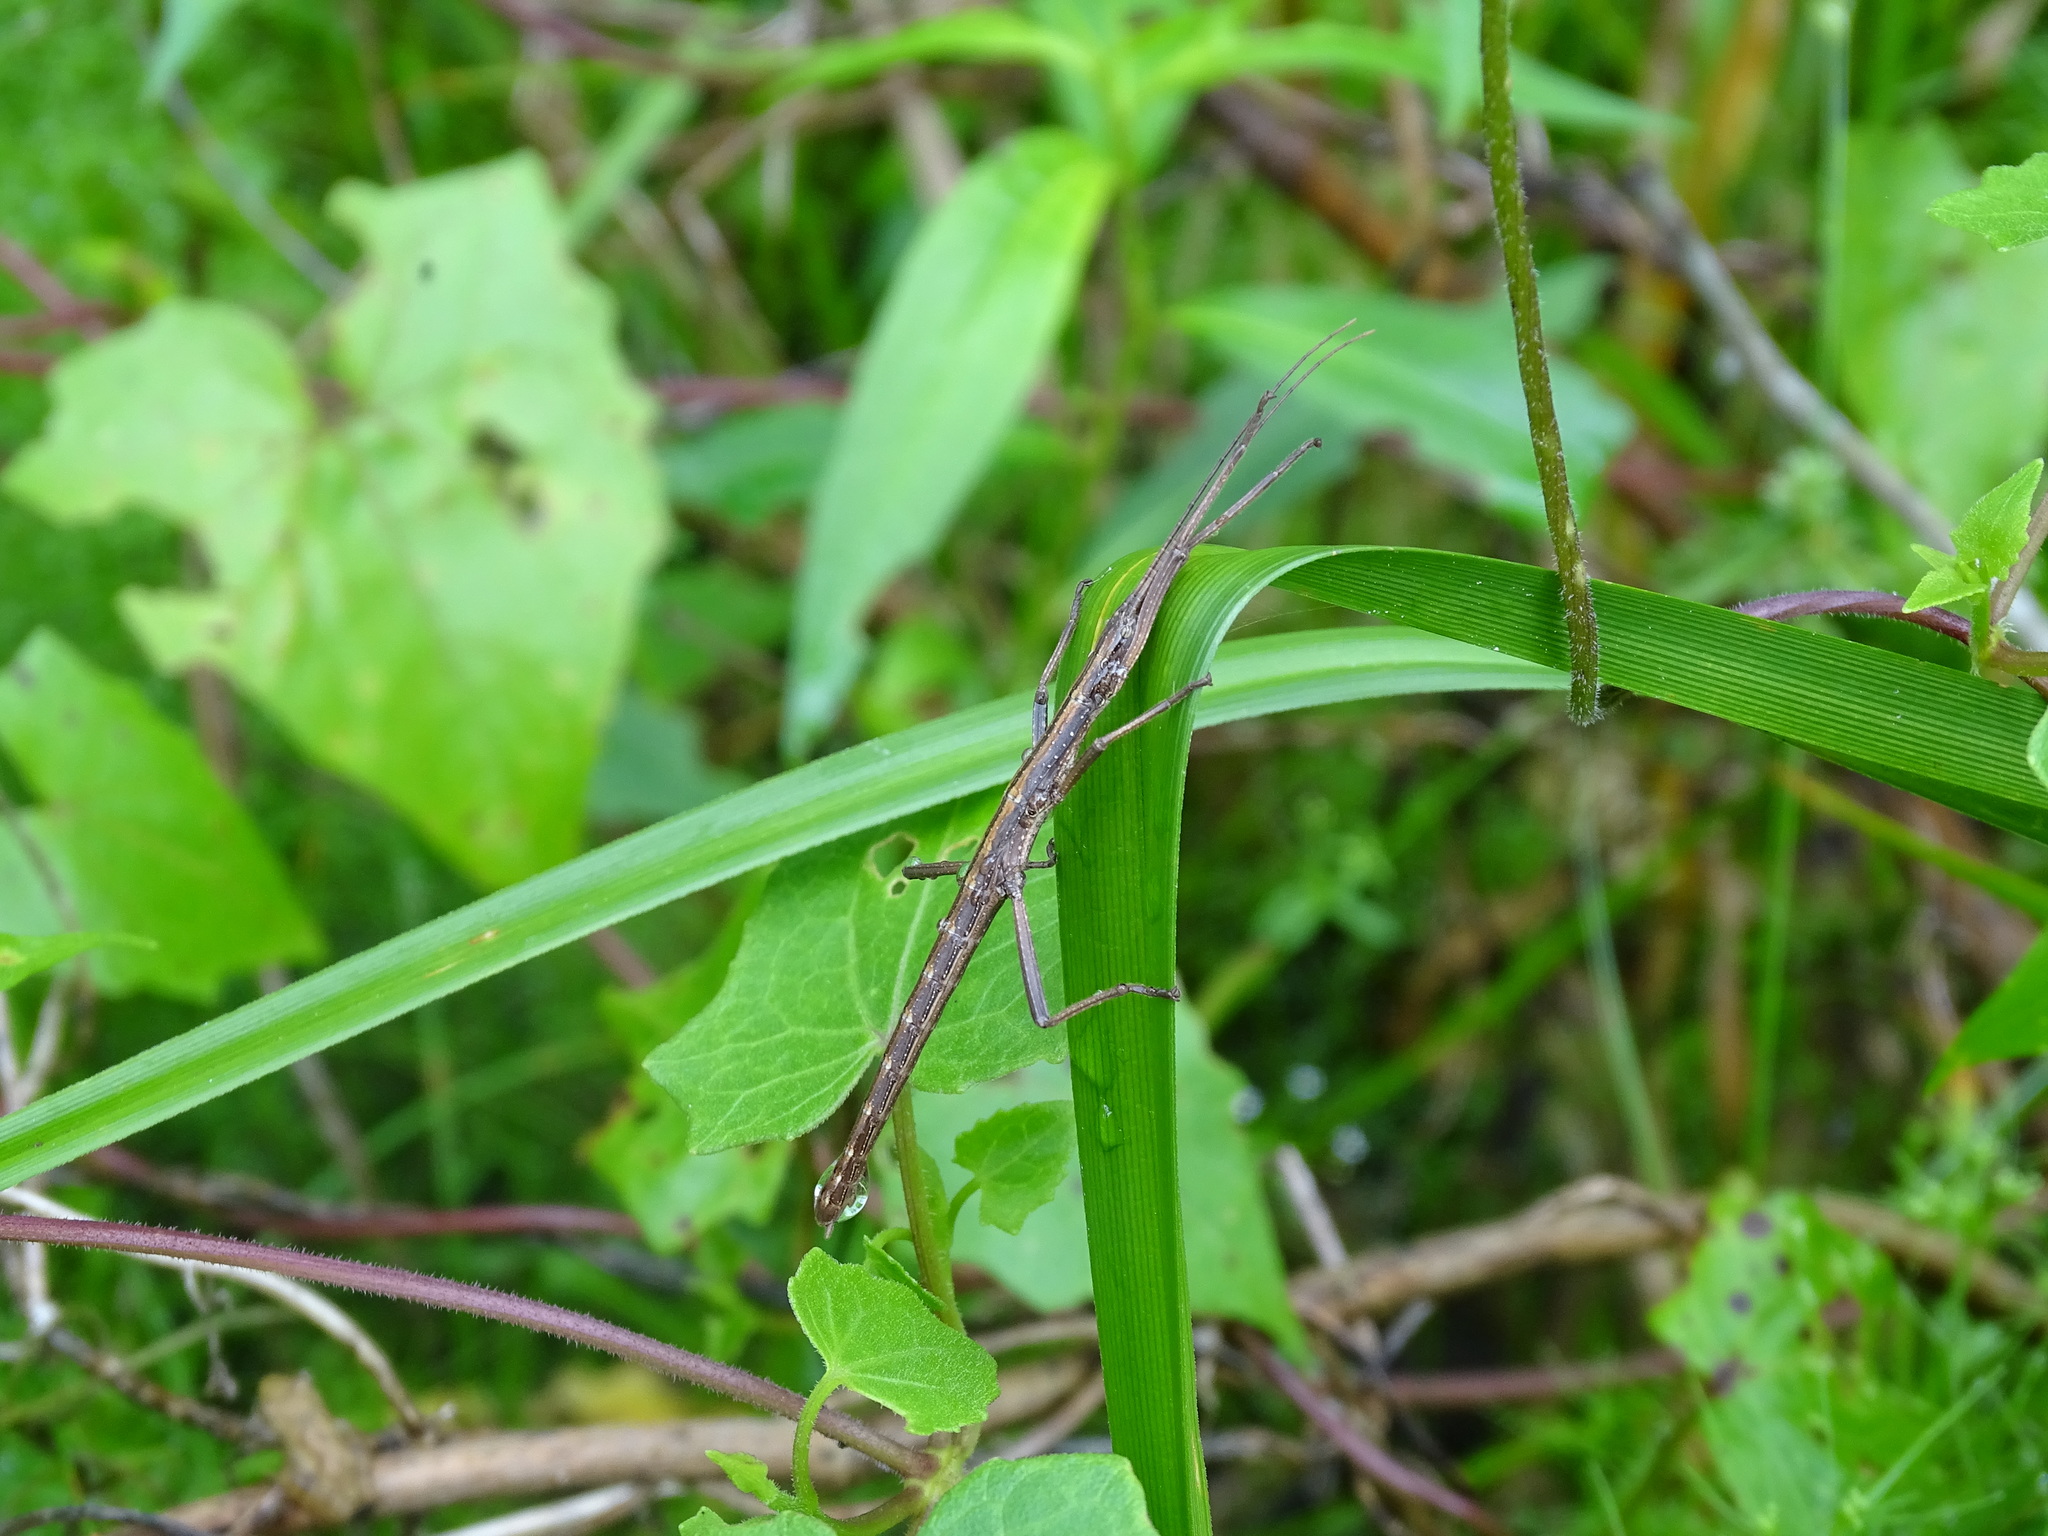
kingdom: Animalia
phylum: Arthropoda
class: Insecta
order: Phasmida
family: Pseudophasmatidae
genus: Anisomorpha
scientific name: Anisomorpha buprestoides
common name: Florida stick insect
